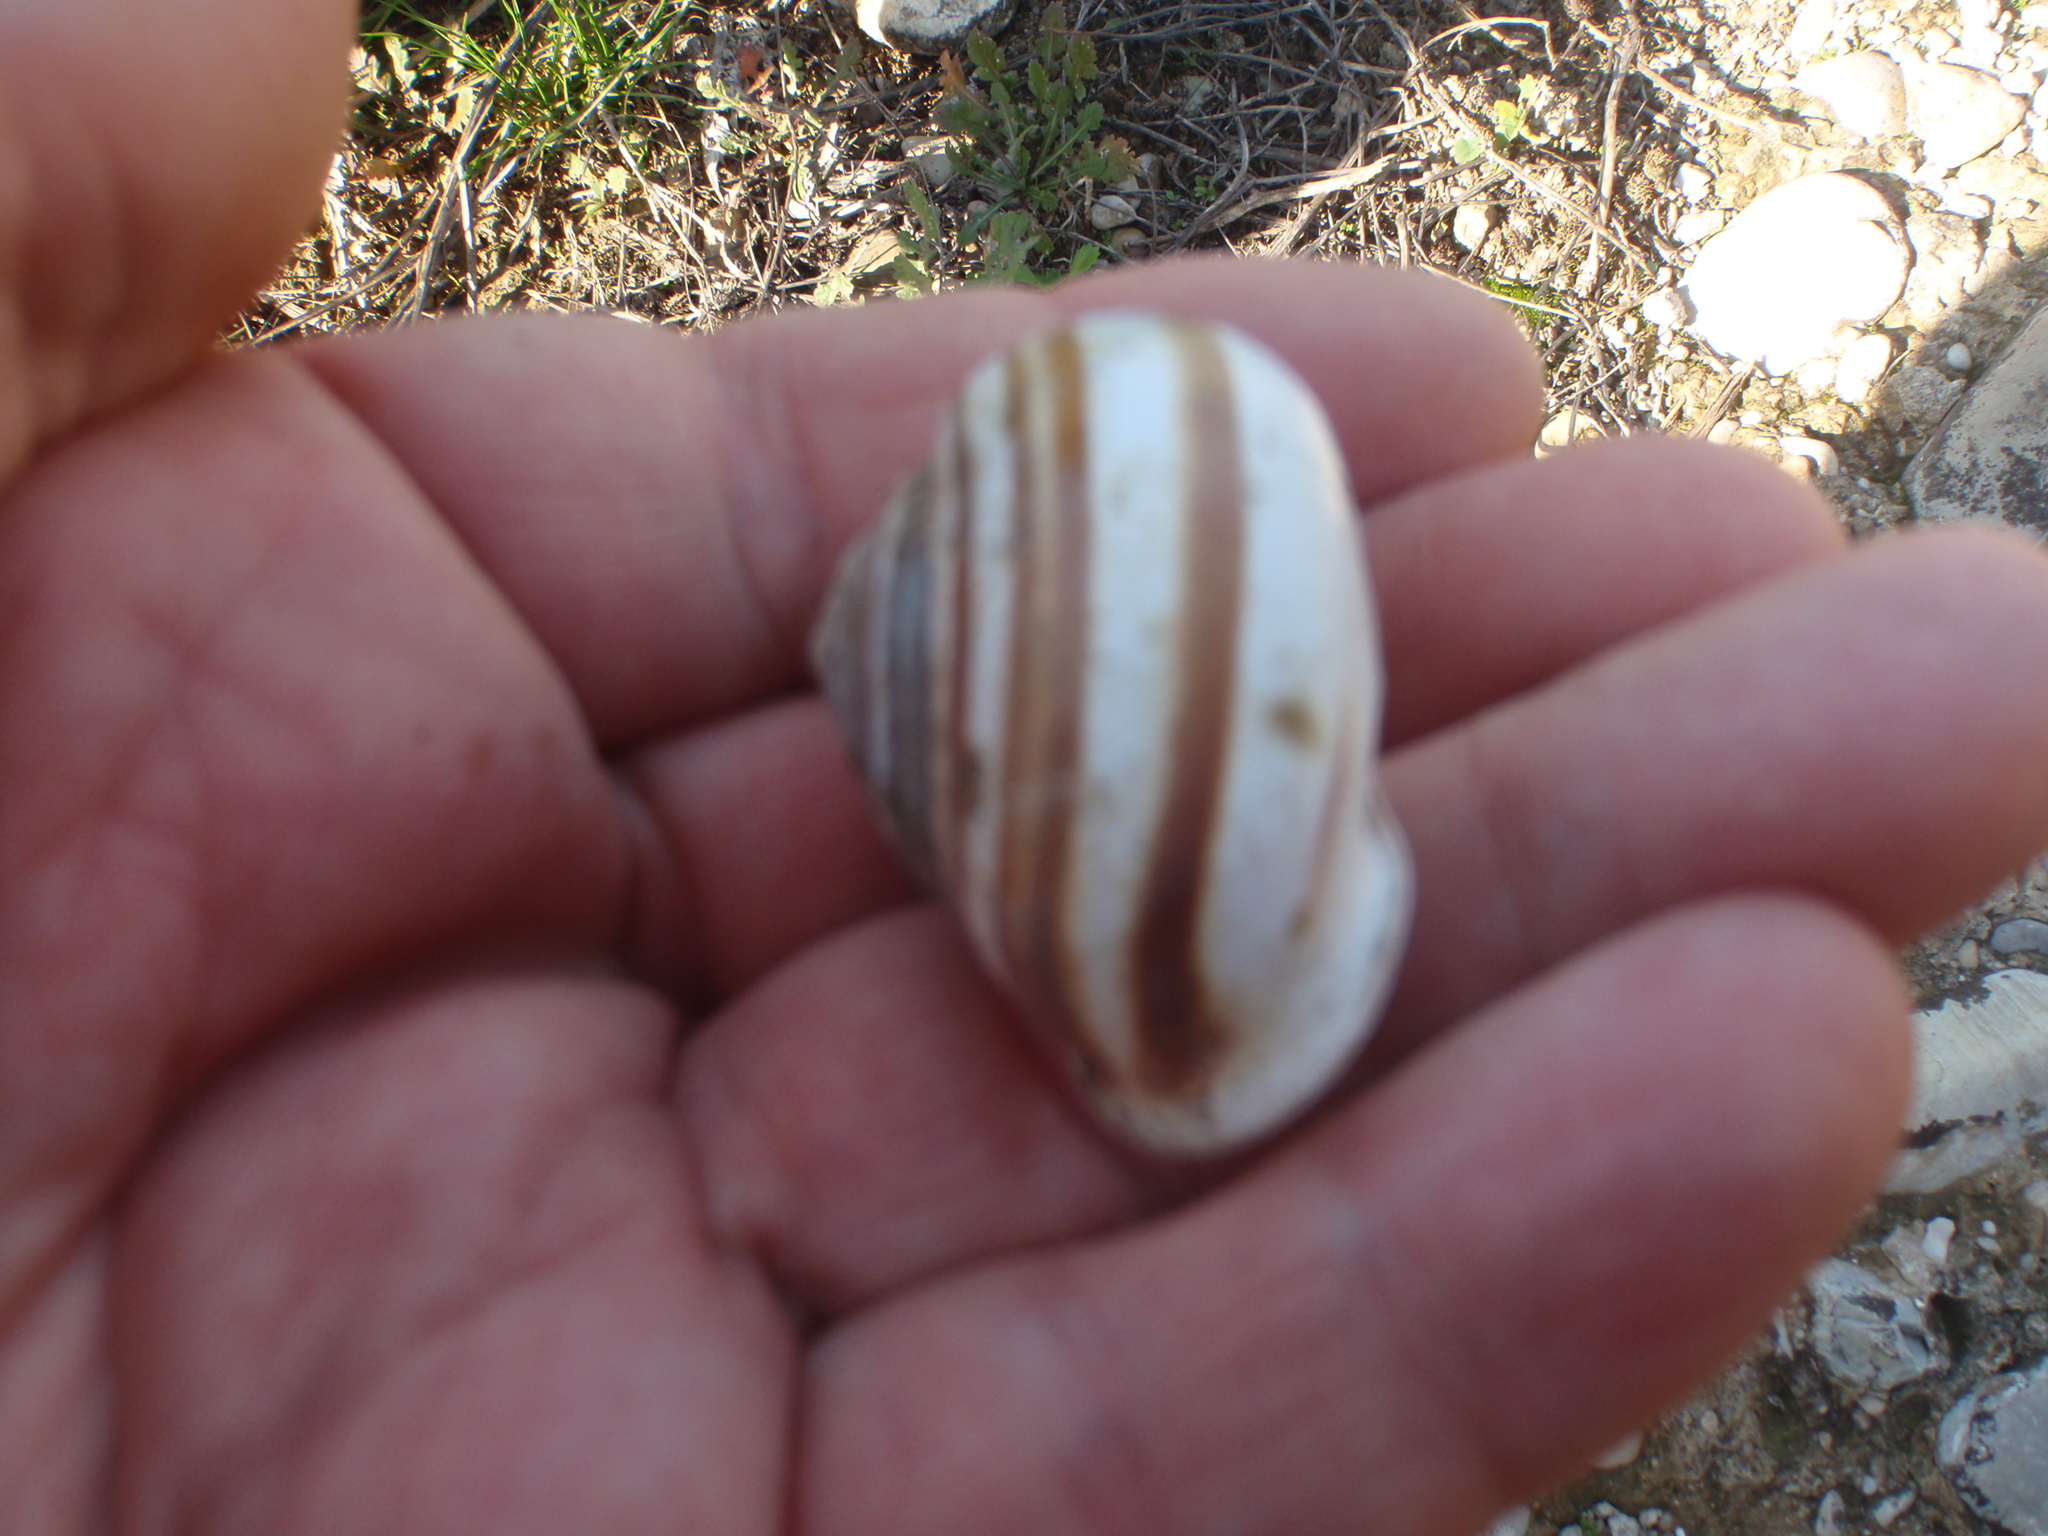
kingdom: Animalia
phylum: Mollusca
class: Gastropoda
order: Stylommatophora
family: Helicidae
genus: Eobania
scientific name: Eobania constantina
